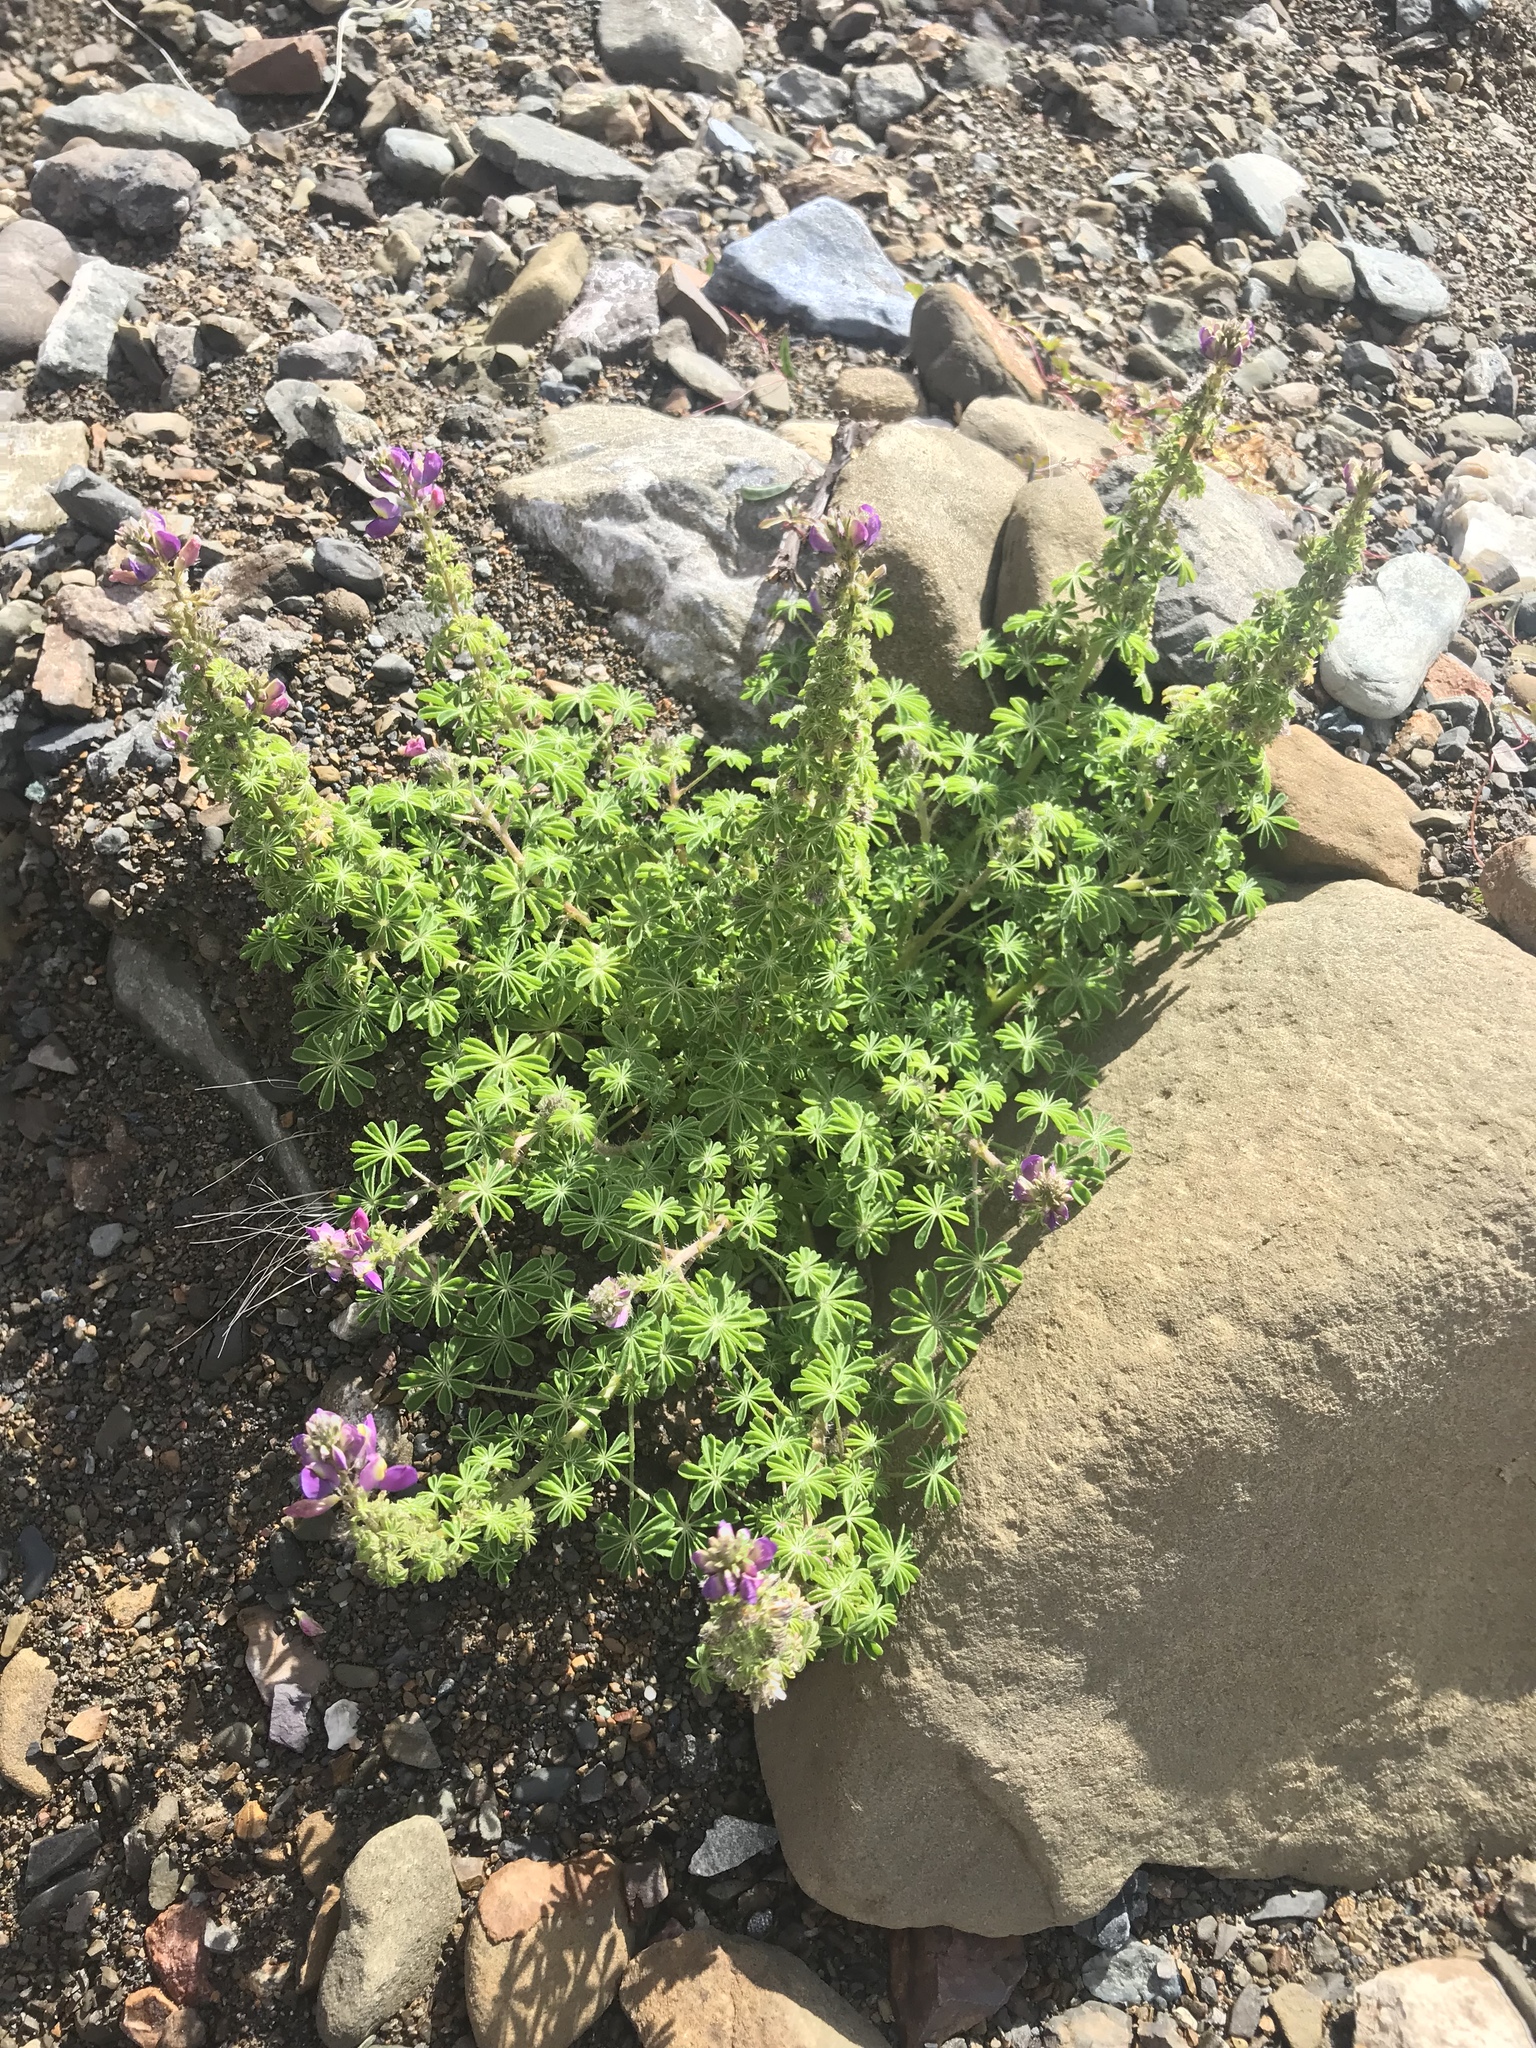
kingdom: Plantae
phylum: Tracheophyta
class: Magnoliopsida
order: Fabales
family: Fabaceae
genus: Lupinus
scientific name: Lupinus sparsiflorus
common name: Coulter's lupine
